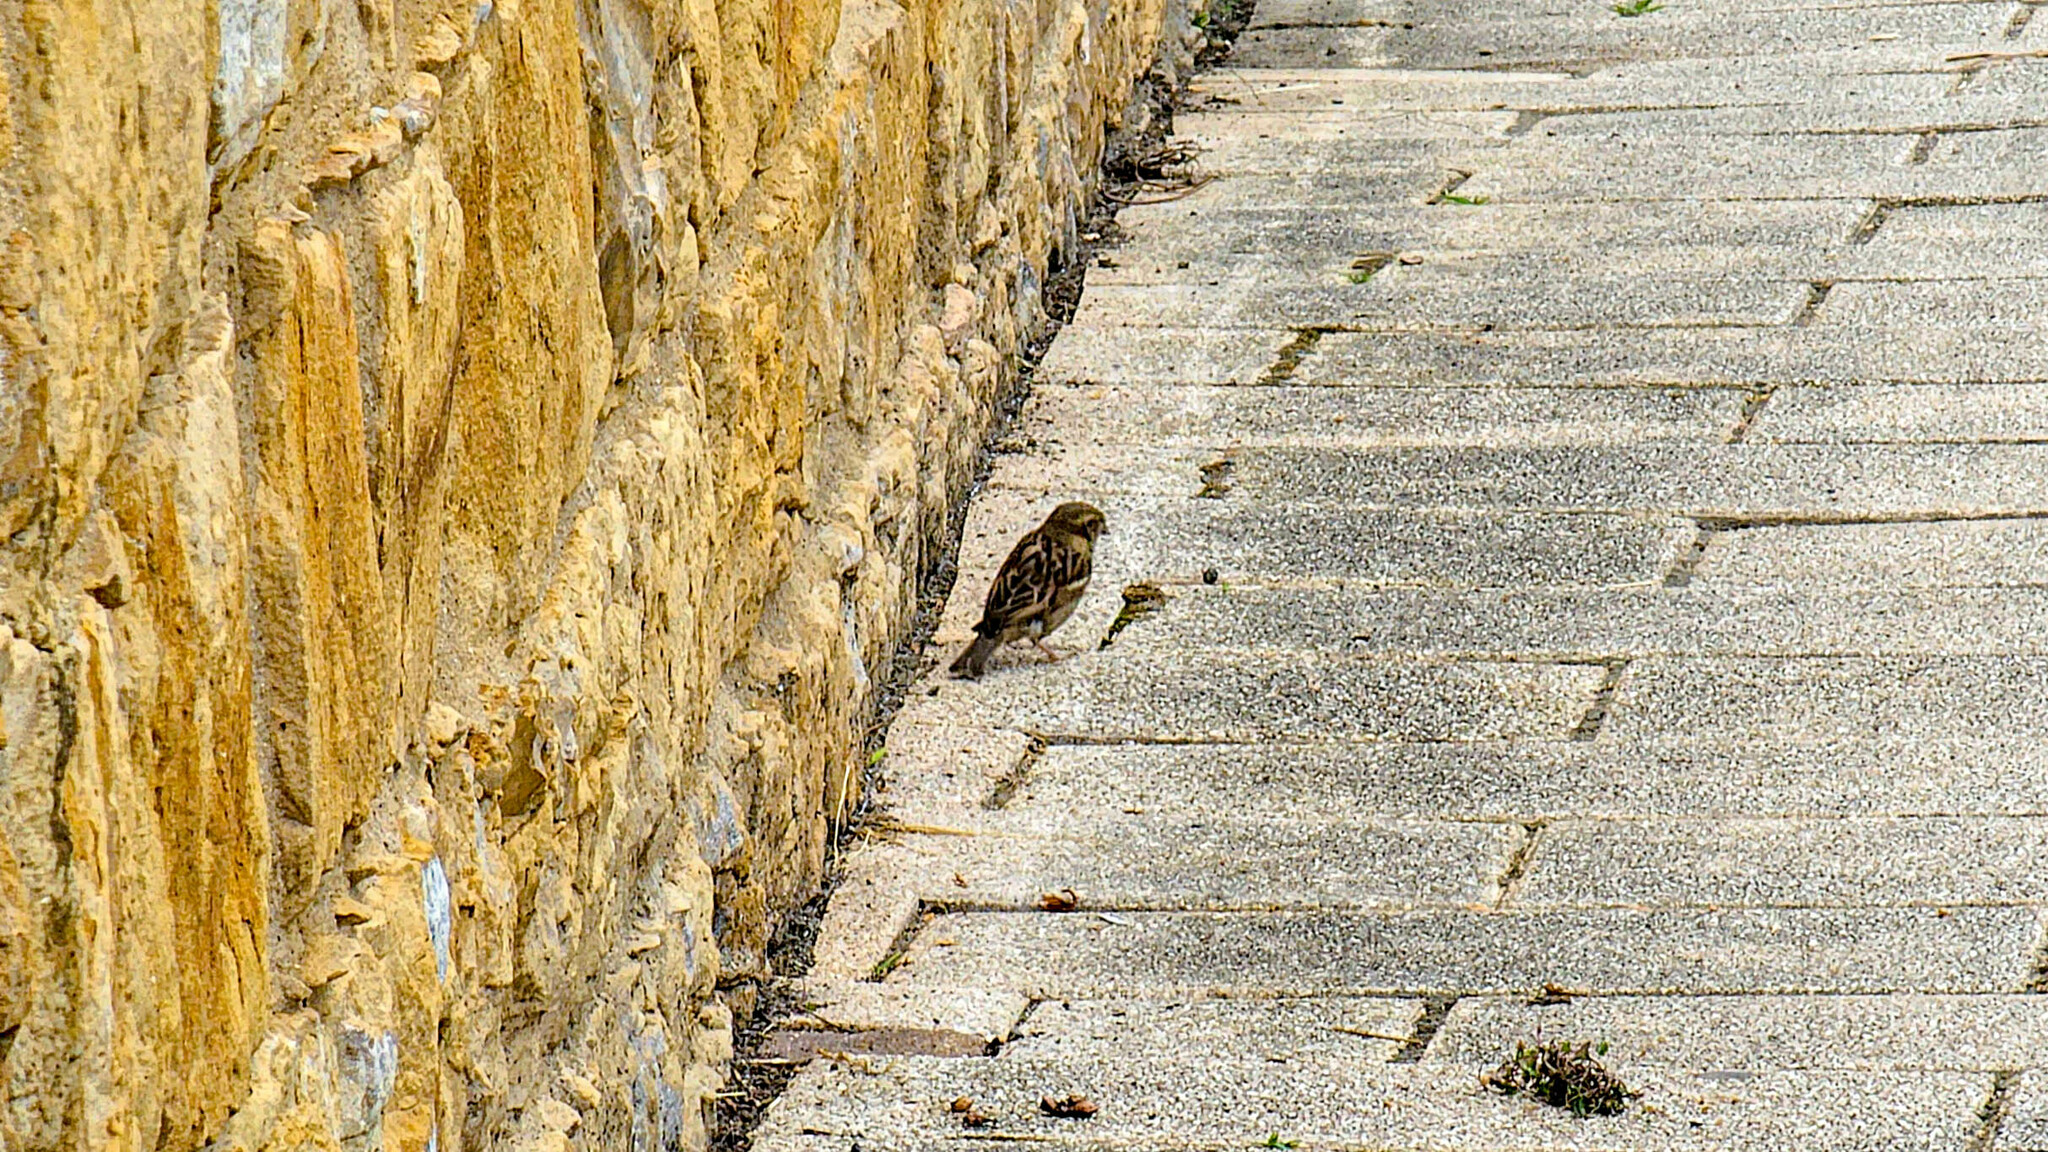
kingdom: Animalia
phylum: Chordata
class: Aves
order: Passeriformes
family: Passeridae
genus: Passer
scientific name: Passer domesticus
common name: House sparrow
